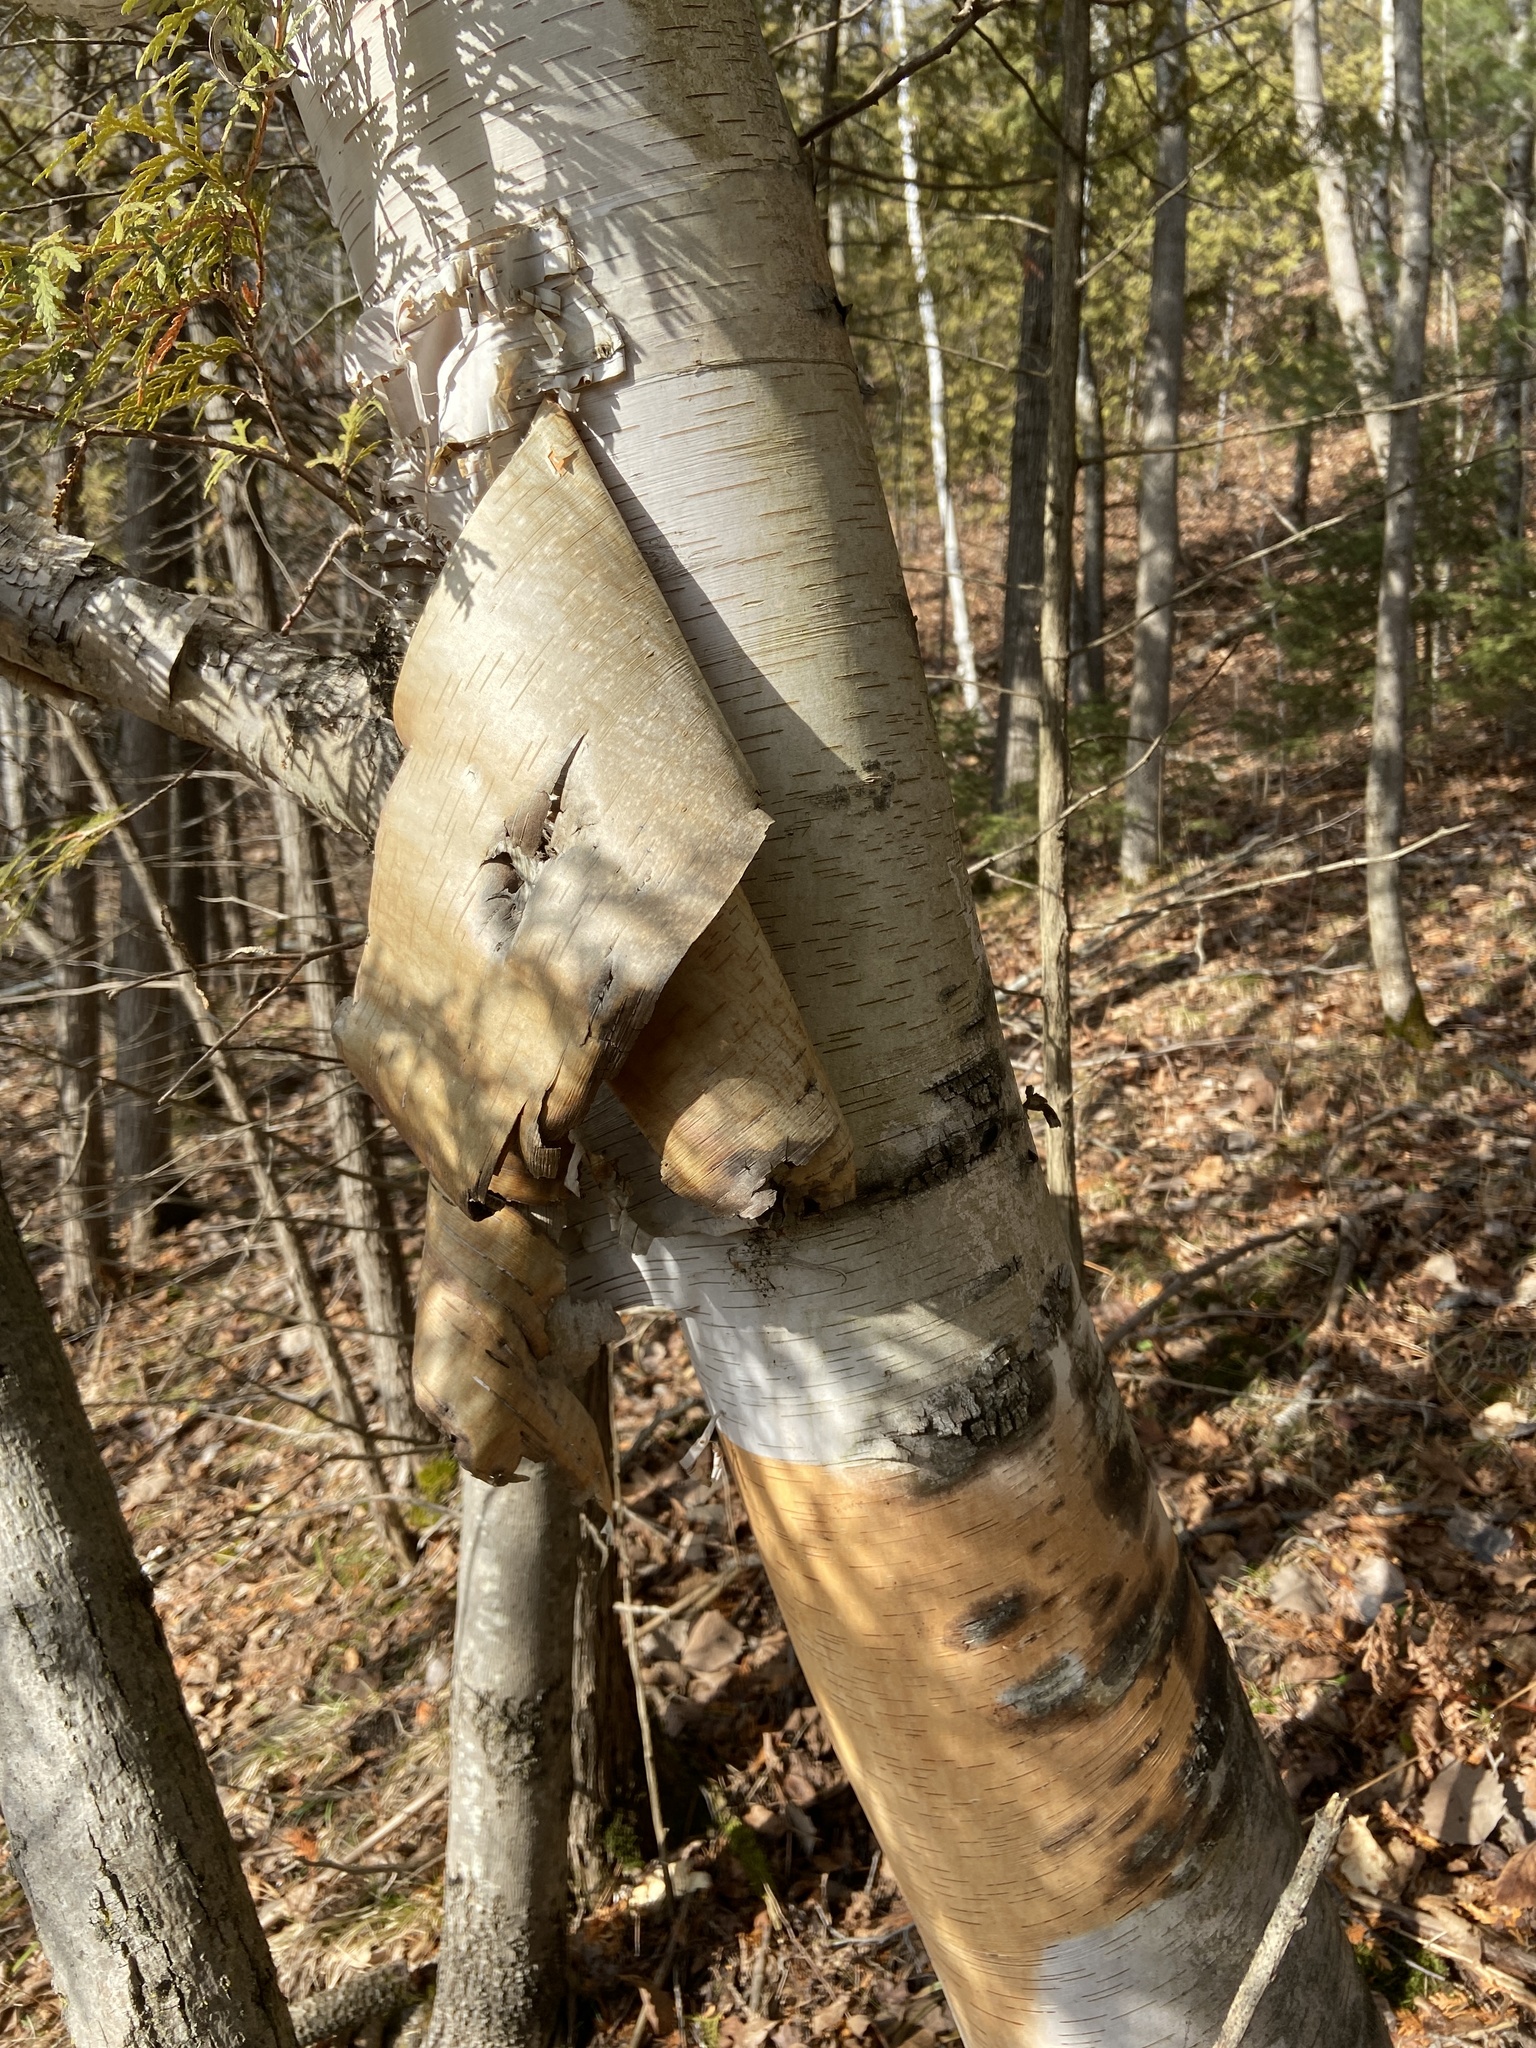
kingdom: Plantae
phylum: Tracheophyta
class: Magnoliopsida
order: Fagales
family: Betulaceae
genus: Betula
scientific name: Betula papyrifera
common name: Paper birch
